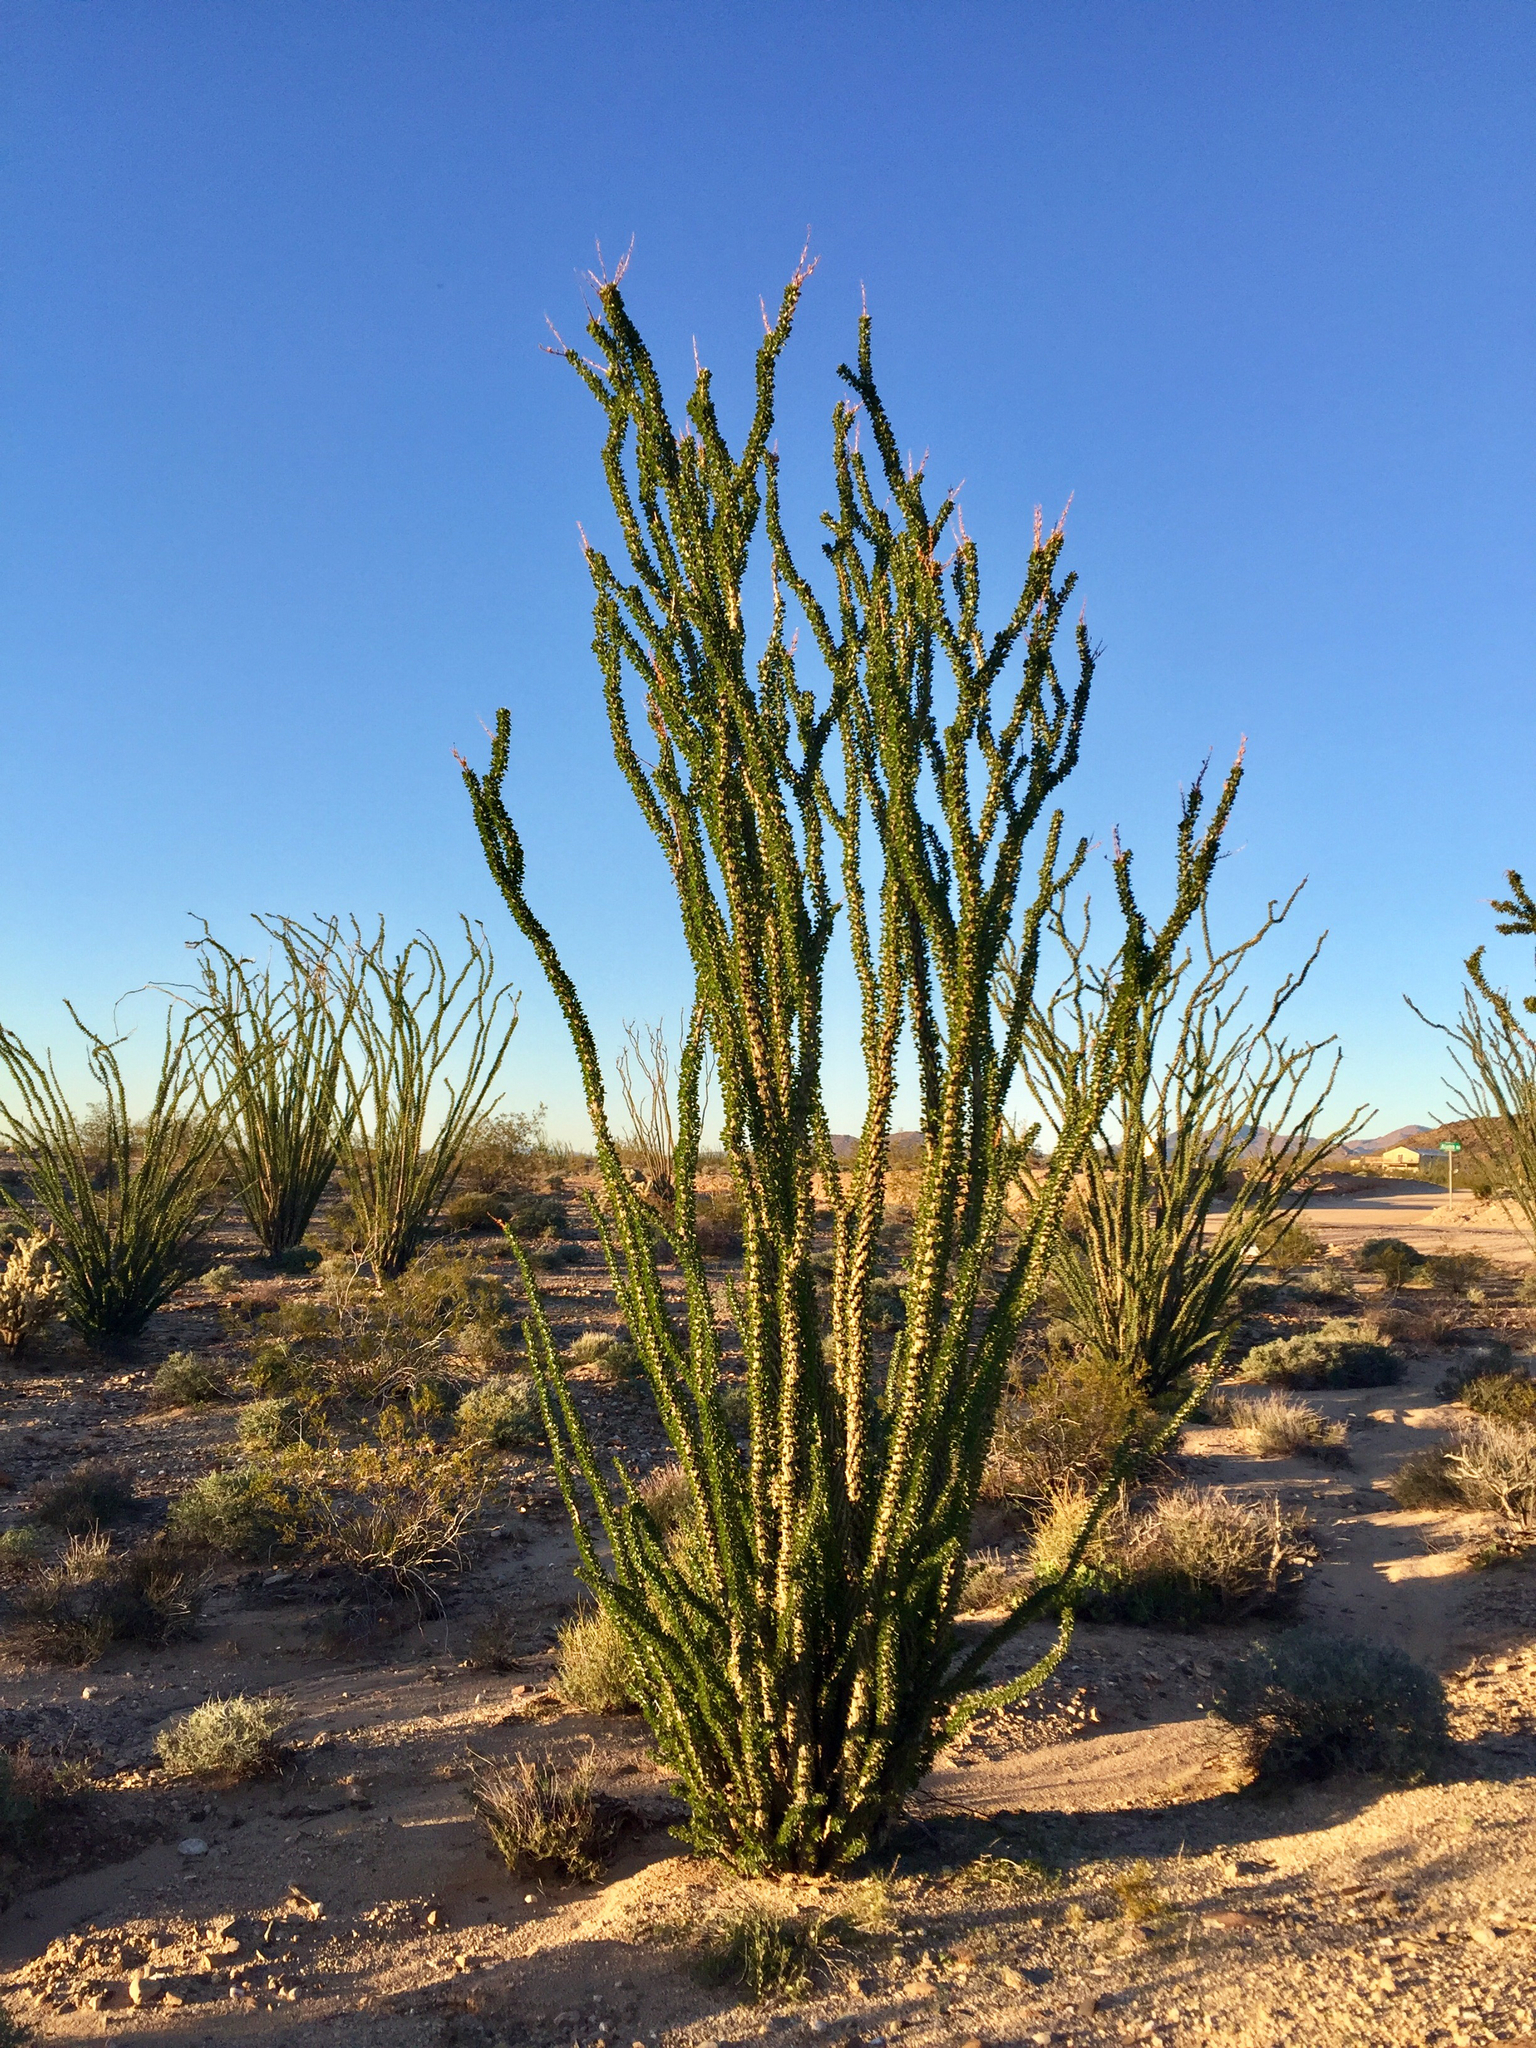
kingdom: Plantae
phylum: Tracheophyta
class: Magnoliopsida
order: Ericales
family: Fouquieriaceae
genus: Fouquieria
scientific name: Fouquieria splendens
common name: Vine-cactus
